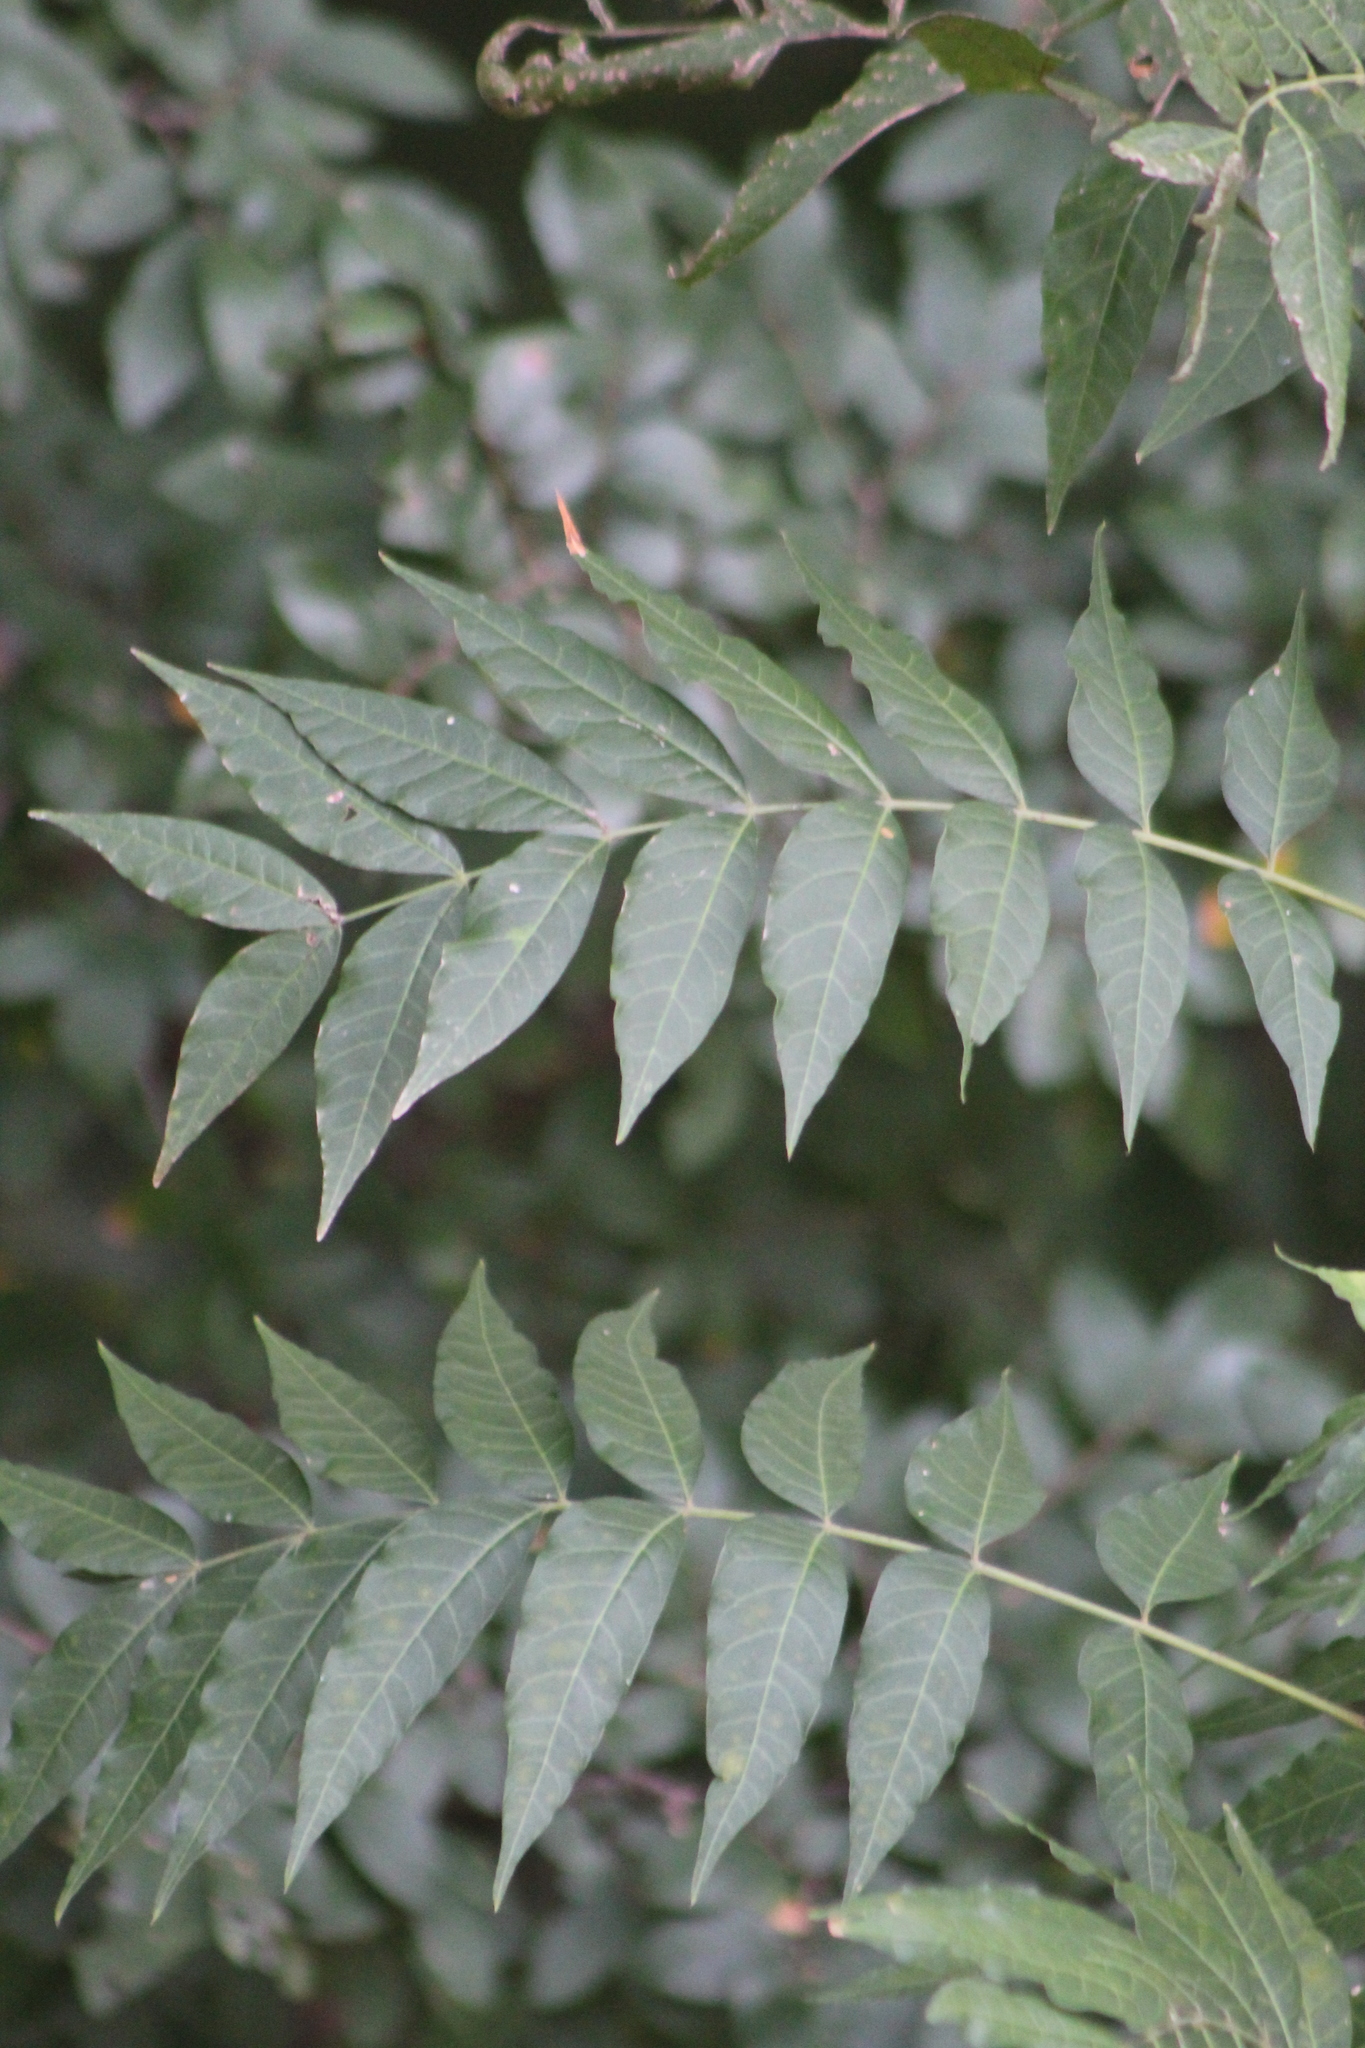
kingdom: Plantae
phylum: Tracheophyta
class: Magnoliopsida
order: Sapindales
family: Anacardiaceae
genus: Pistacia
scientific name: Pistacia chinensis
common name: Chinese pistache
